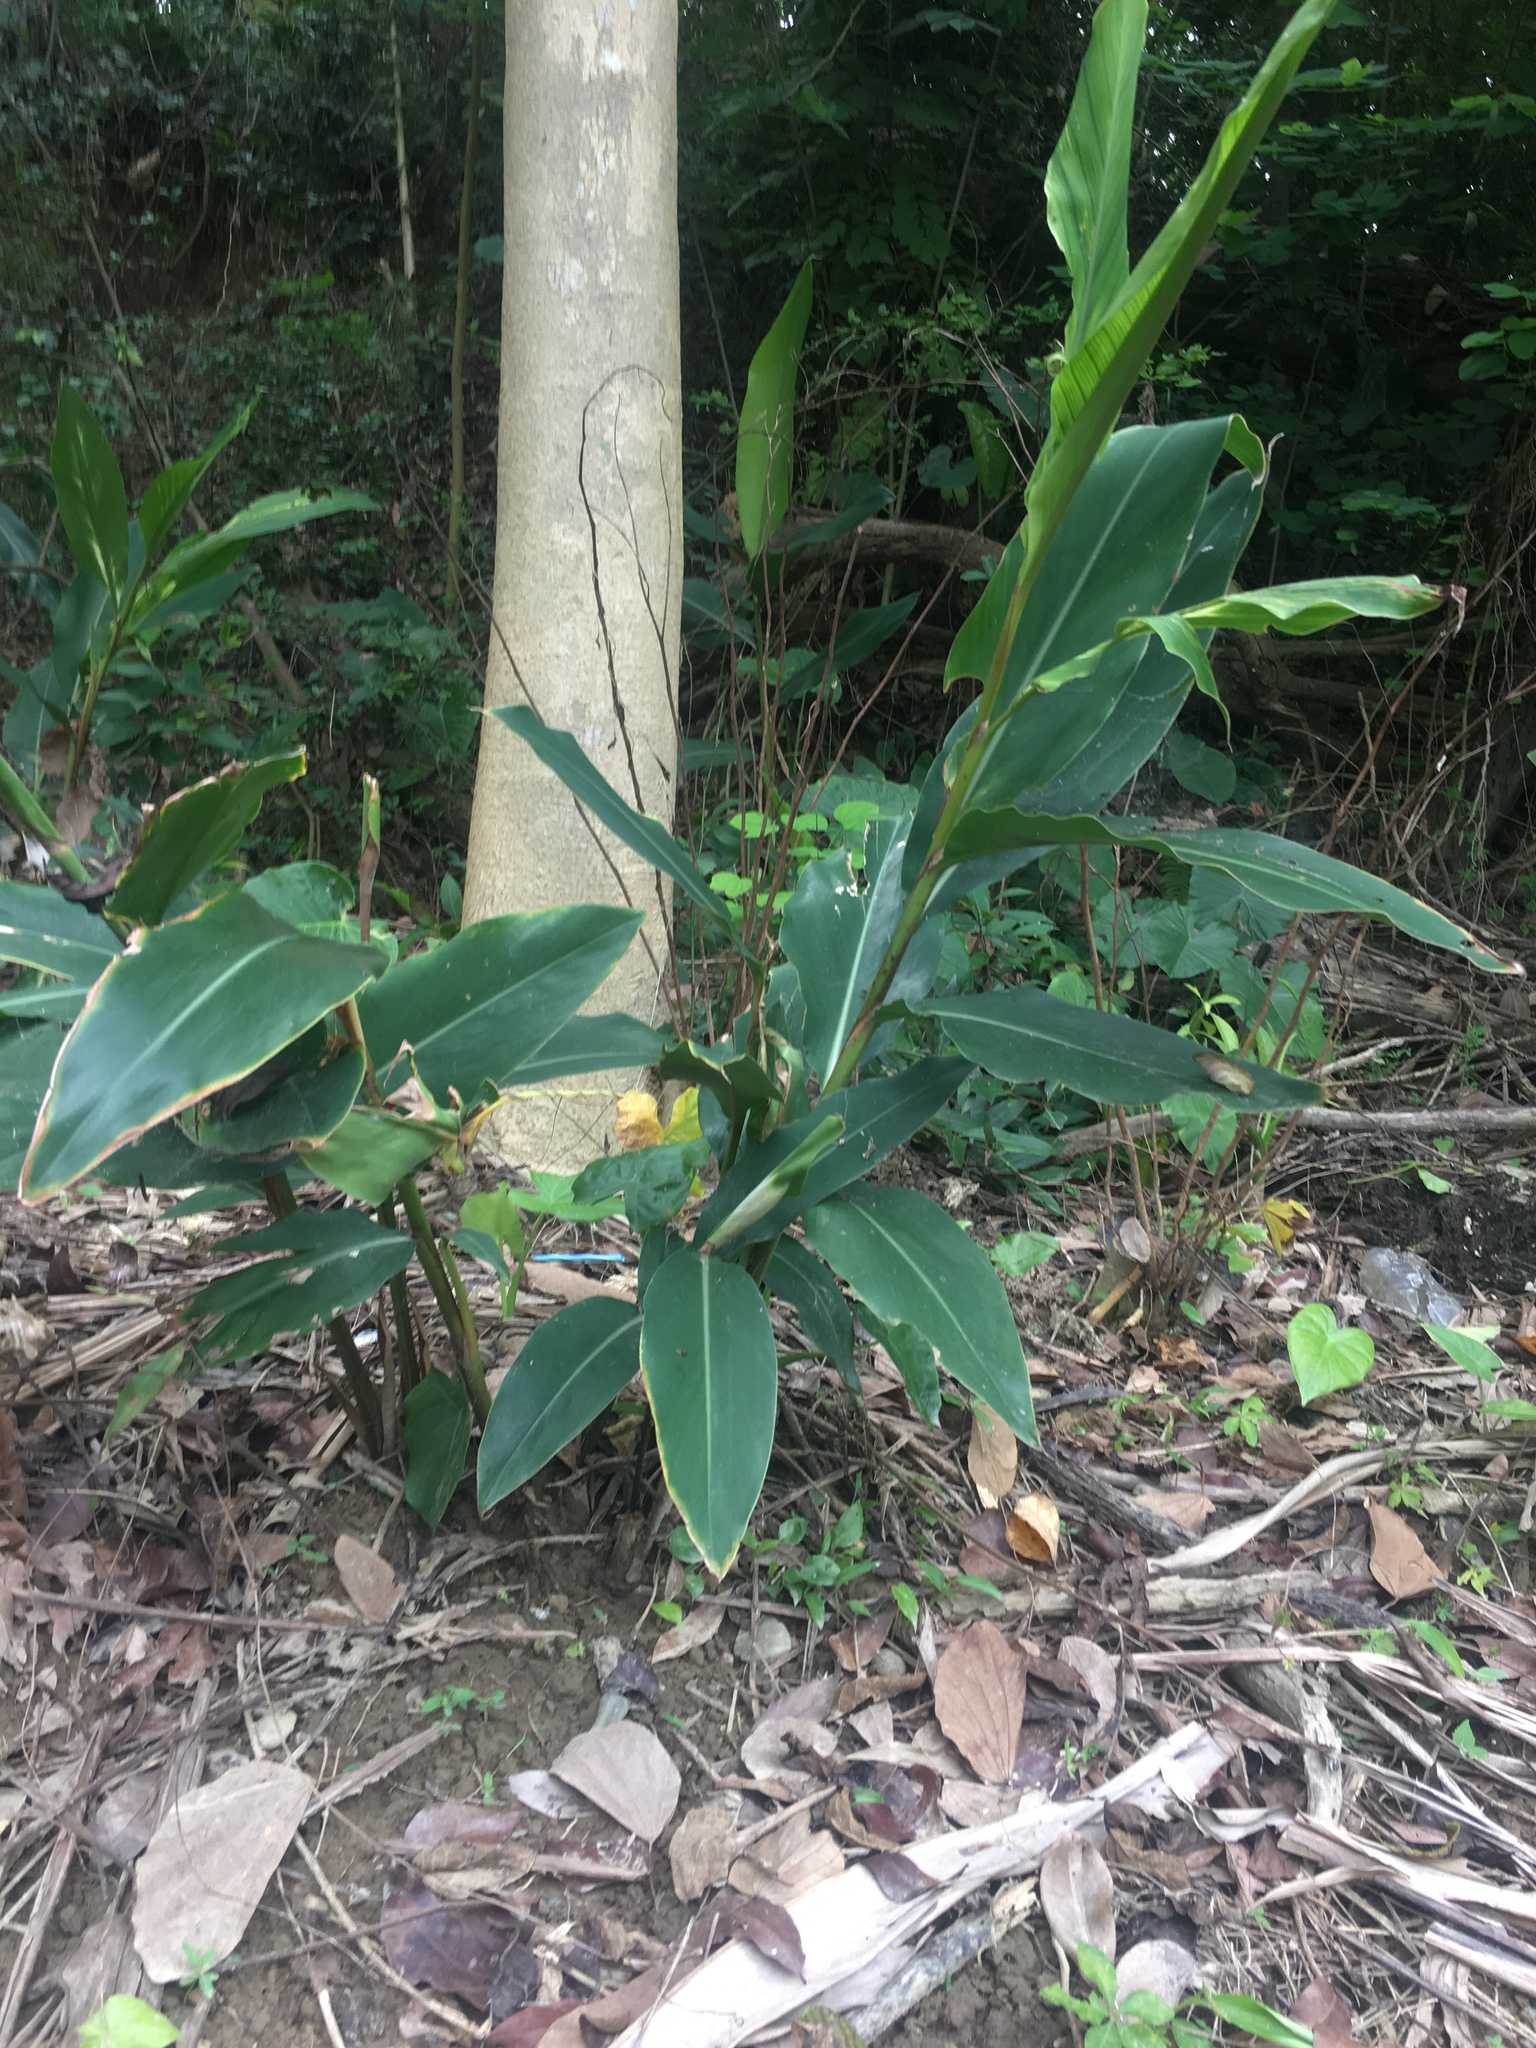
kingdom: Plantae
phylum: Tracheophyta
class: Liliopsida
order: Zingiberales
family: Zingiberaceae
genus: Alpinia
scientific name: Alpinia zerumbet
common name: Shellplant
